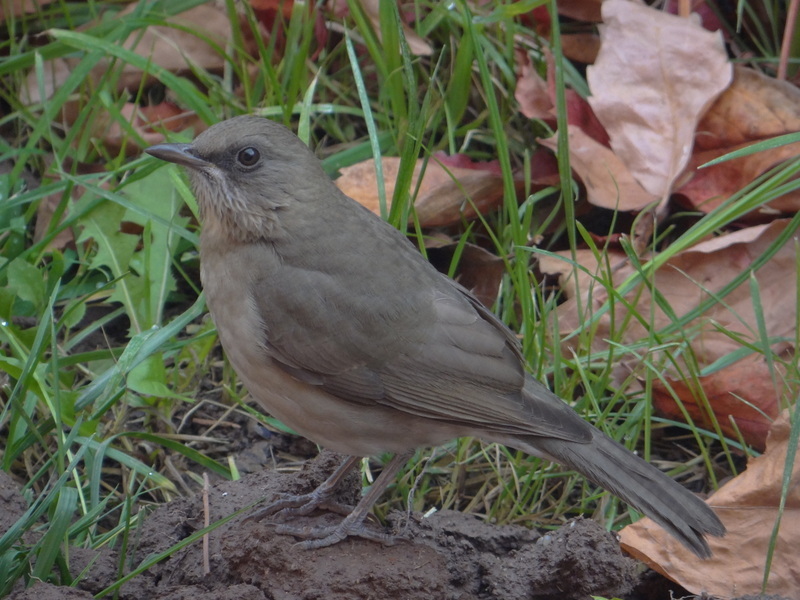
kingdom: Animalia
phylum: Chordata
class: Aves
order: Passeriformes
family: Turdidae
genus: Turdus
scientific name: Turdus amaurochalinus
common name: Creamy-bellied thrush
